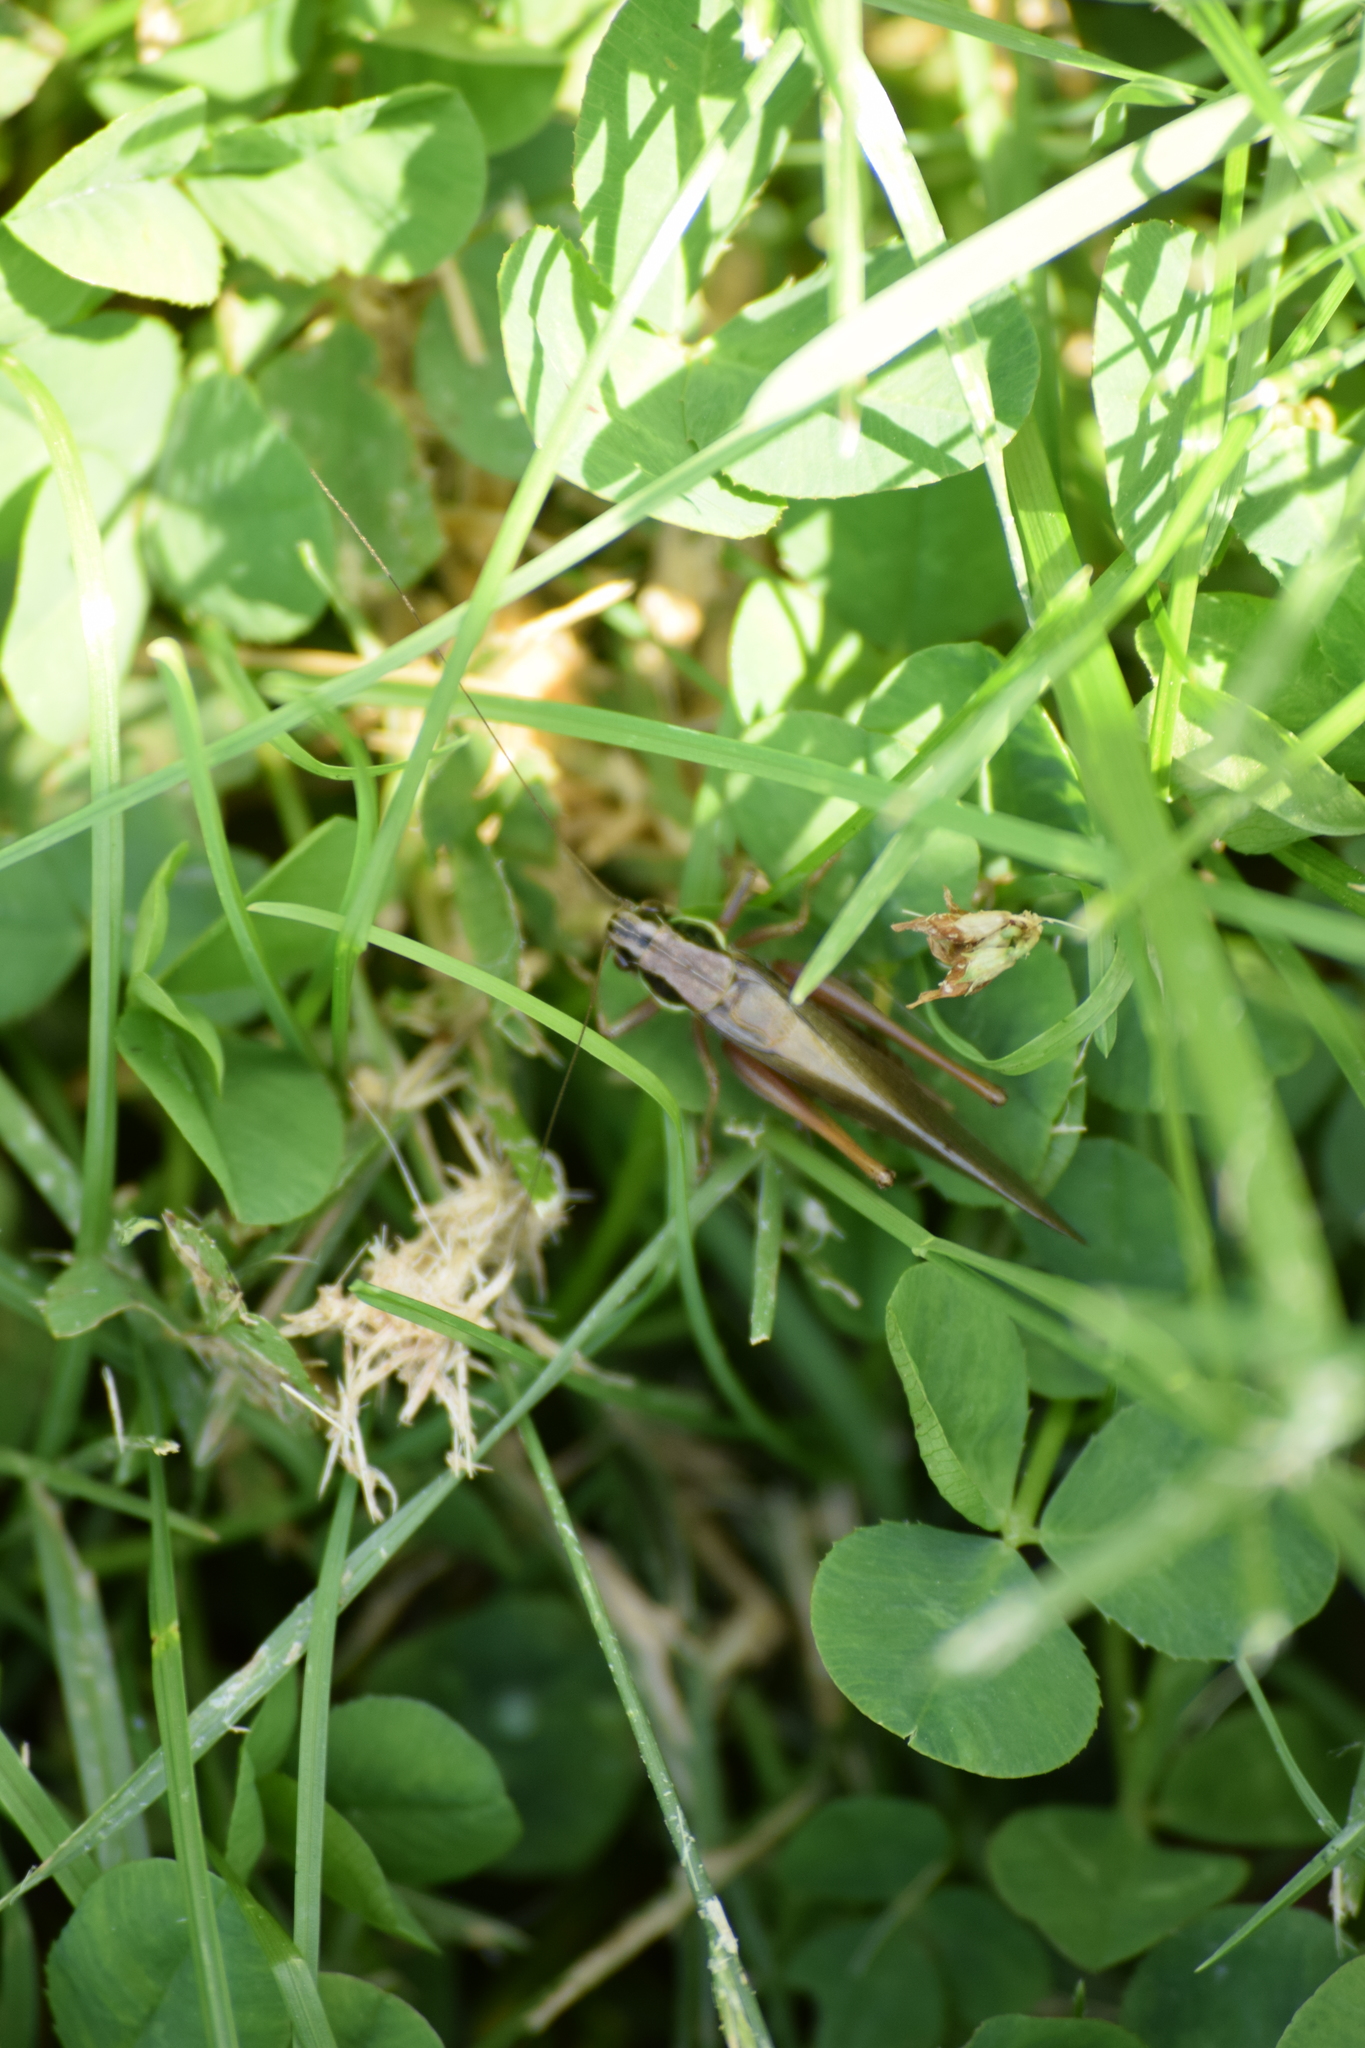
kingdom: Animalia
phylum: Arthropoda
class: Insecta
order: Orthoptera
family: Tettigoniidae
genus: Roeseliana
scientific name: Roeseliana roeselii
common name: Roesel's bush cricket
